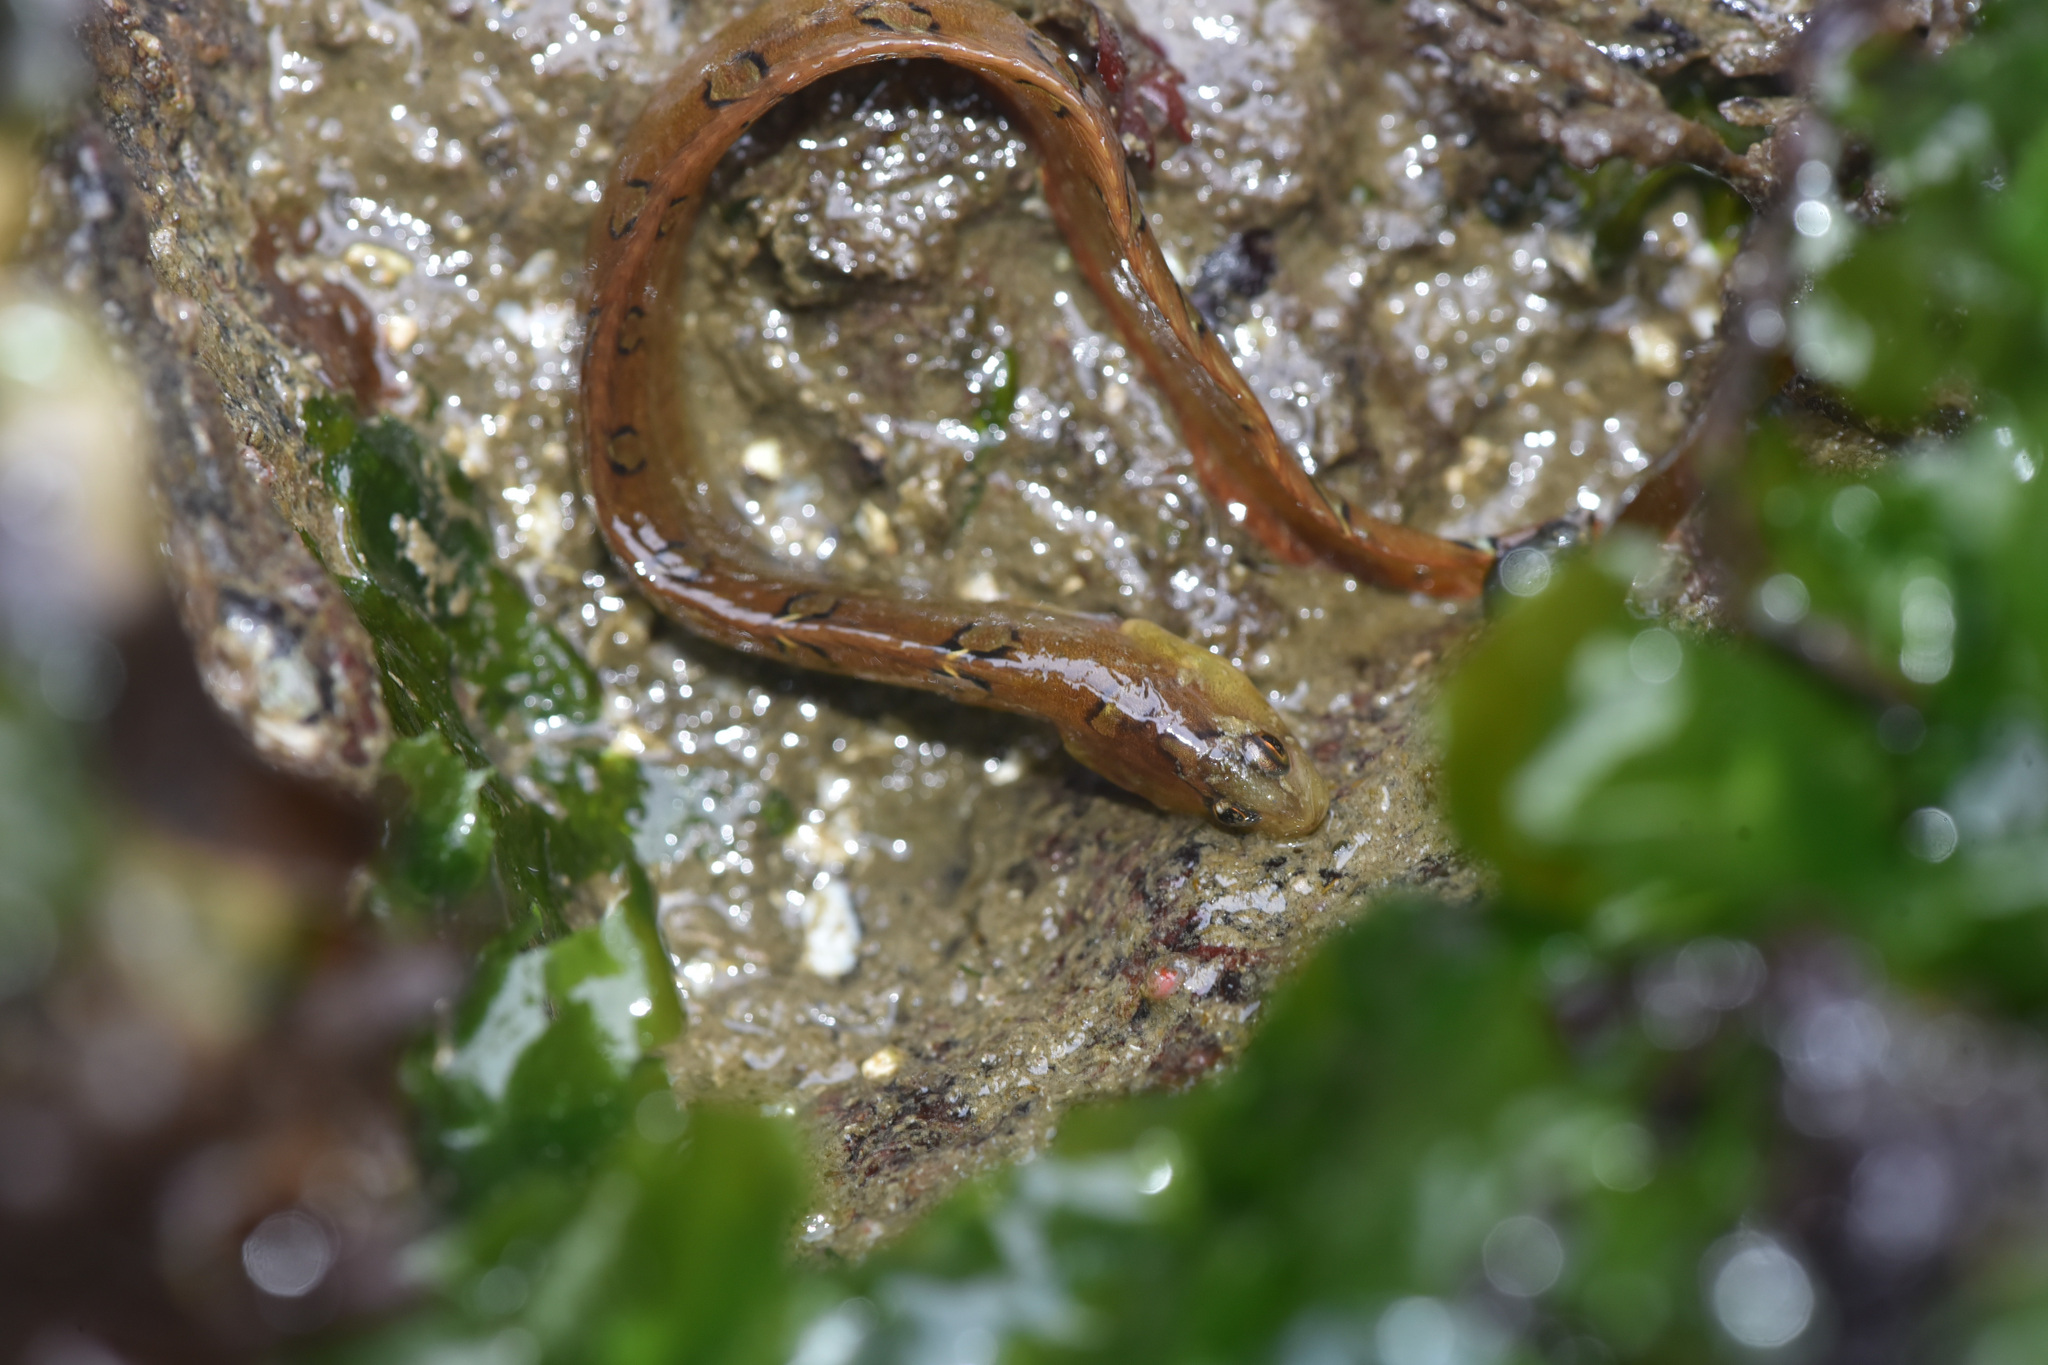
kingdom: Animalia
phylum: Chordata
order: Perciformes
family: Pholidae
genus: Pholis
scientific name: Pholis laeta
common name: Crescent gunnel
